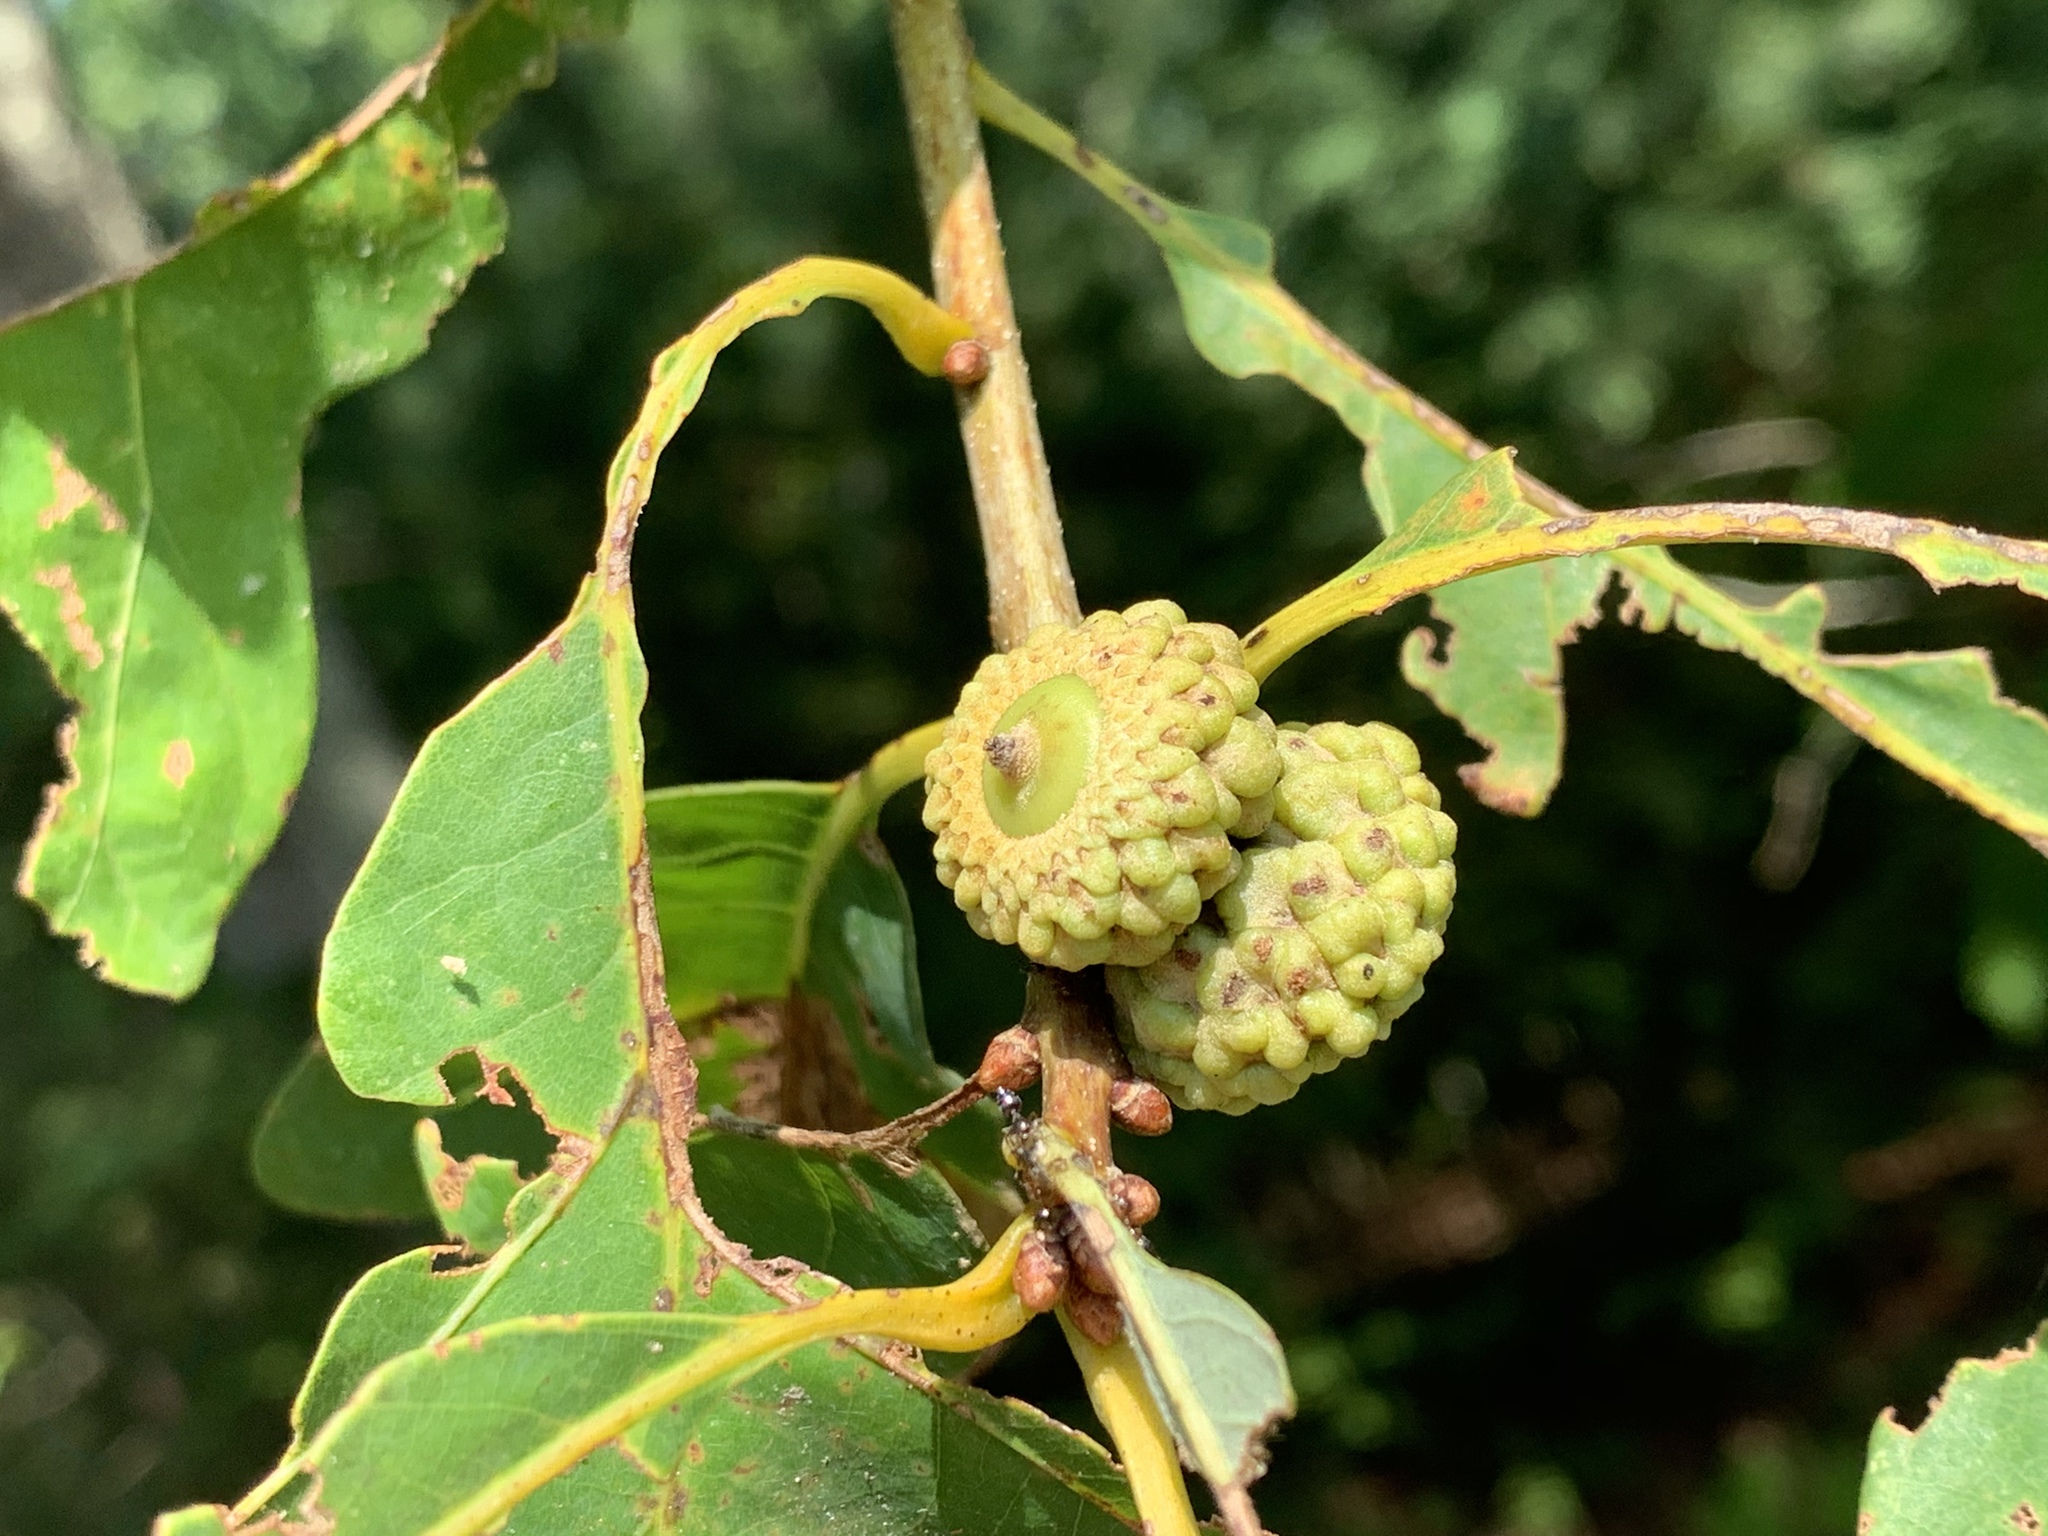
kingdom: Plantae
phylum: Tracheophyta
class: Magnoliopsida
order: Fagales
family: Fagaceae
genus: Quercus
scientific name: Quercus alba
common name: White oak
